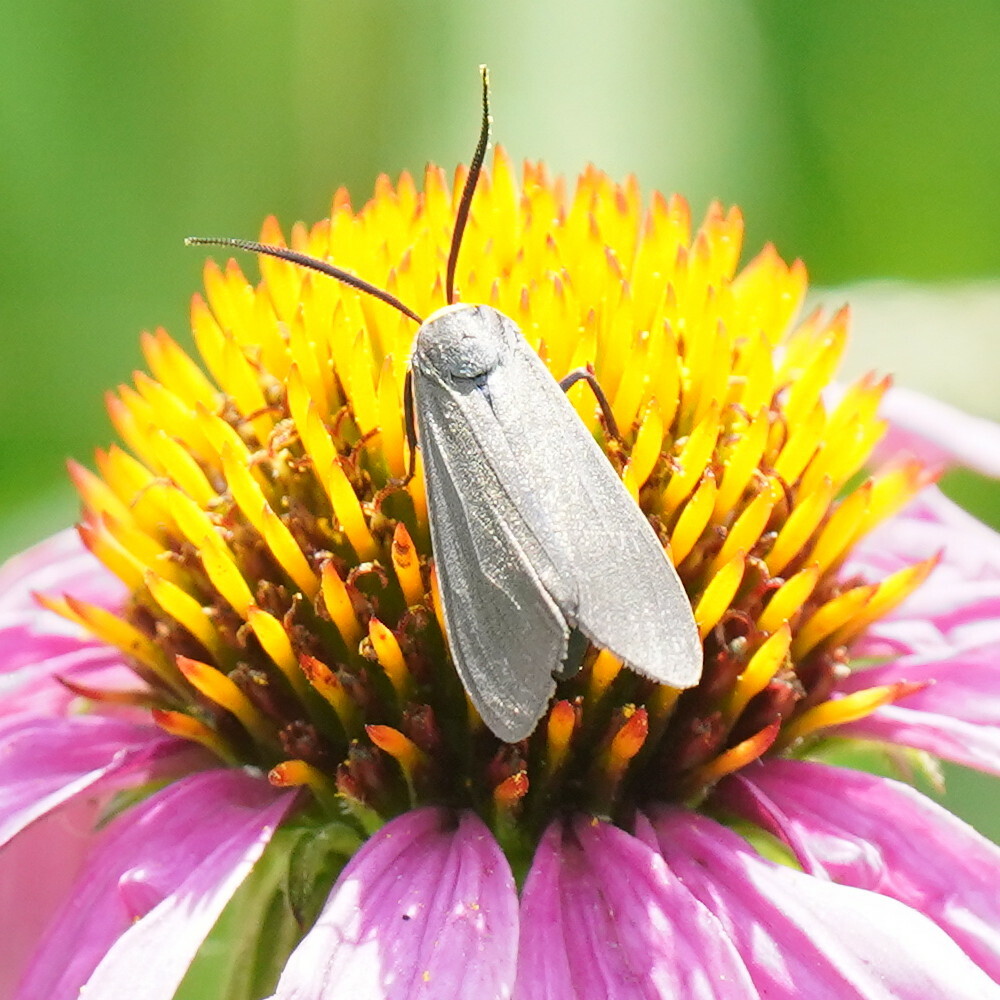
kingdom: Animalia
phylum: Arthropoda
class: Insecta
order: Lepidoptera
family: Erebidae
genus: Cisseps
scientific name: Cisseps fulvicollis
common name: Yellow-collared scape moth
